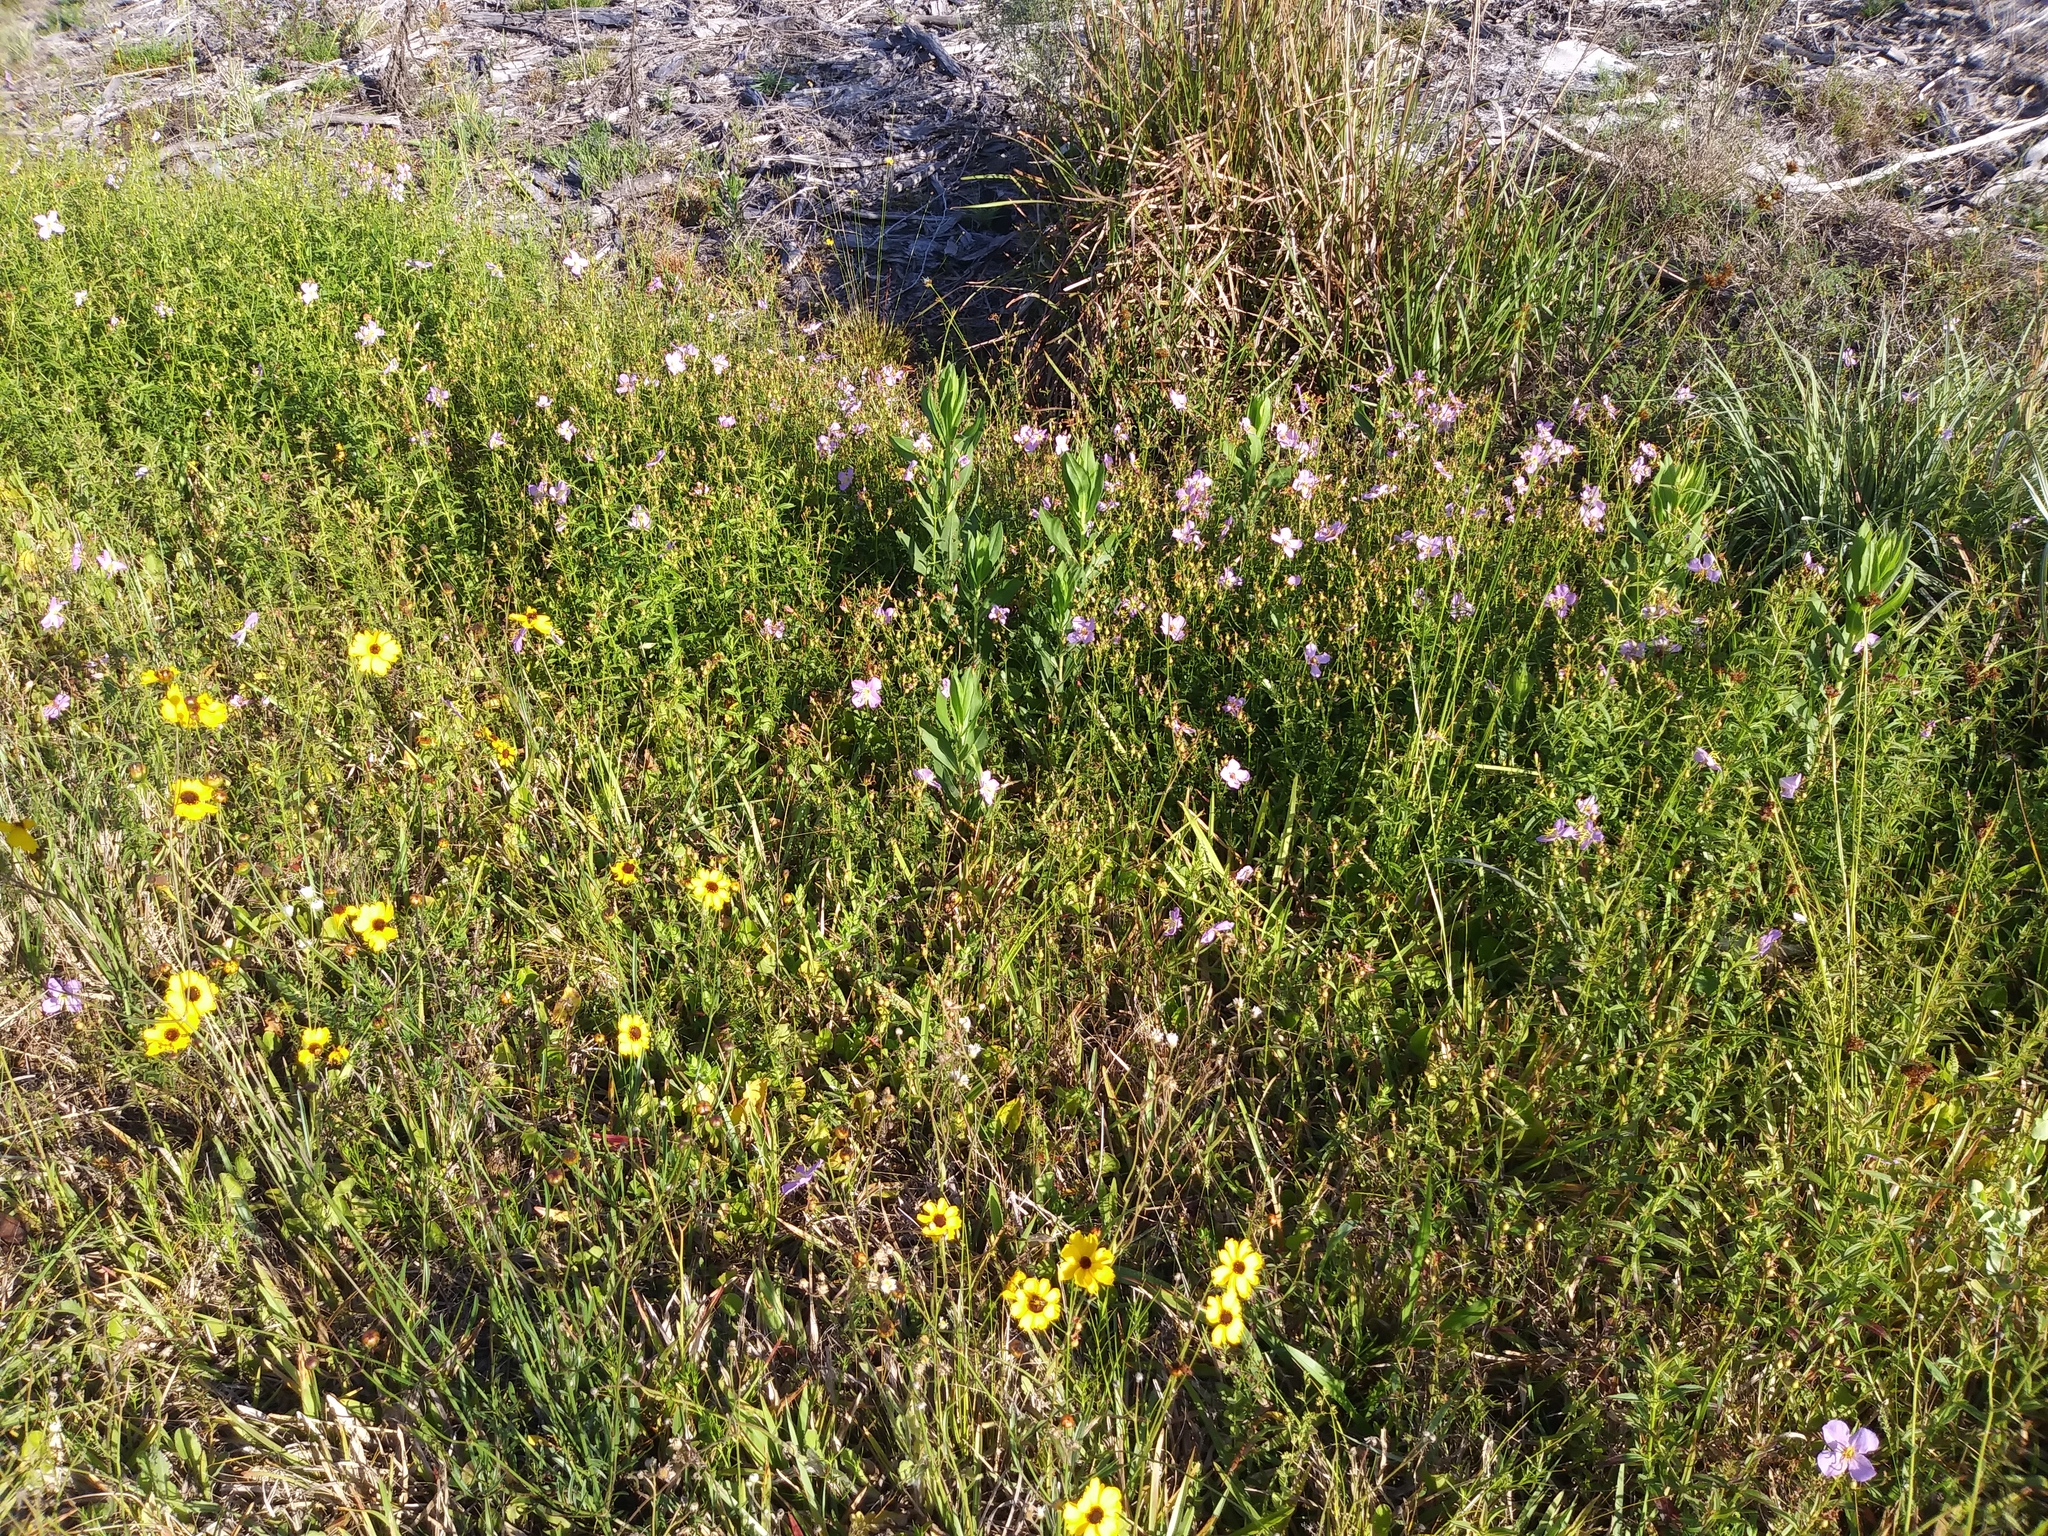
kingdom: Plantae
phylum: Tracheophyta
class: Magnoliopsida
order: Myrtales
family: Melastomataceae
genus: Rhexia
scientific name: Rhexia mariana
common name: Dull meadow-pitcher
